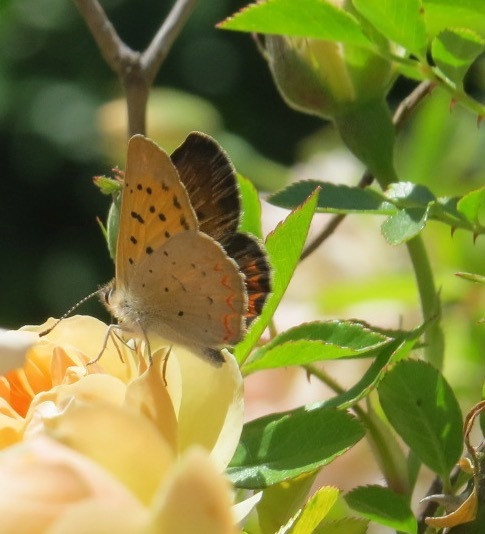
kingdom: Animalia
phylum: Arthropoda
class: Insecta
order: Lepidoptera
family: Lycaenidae
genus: Tharsalea
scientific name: Tharsalea helloides
